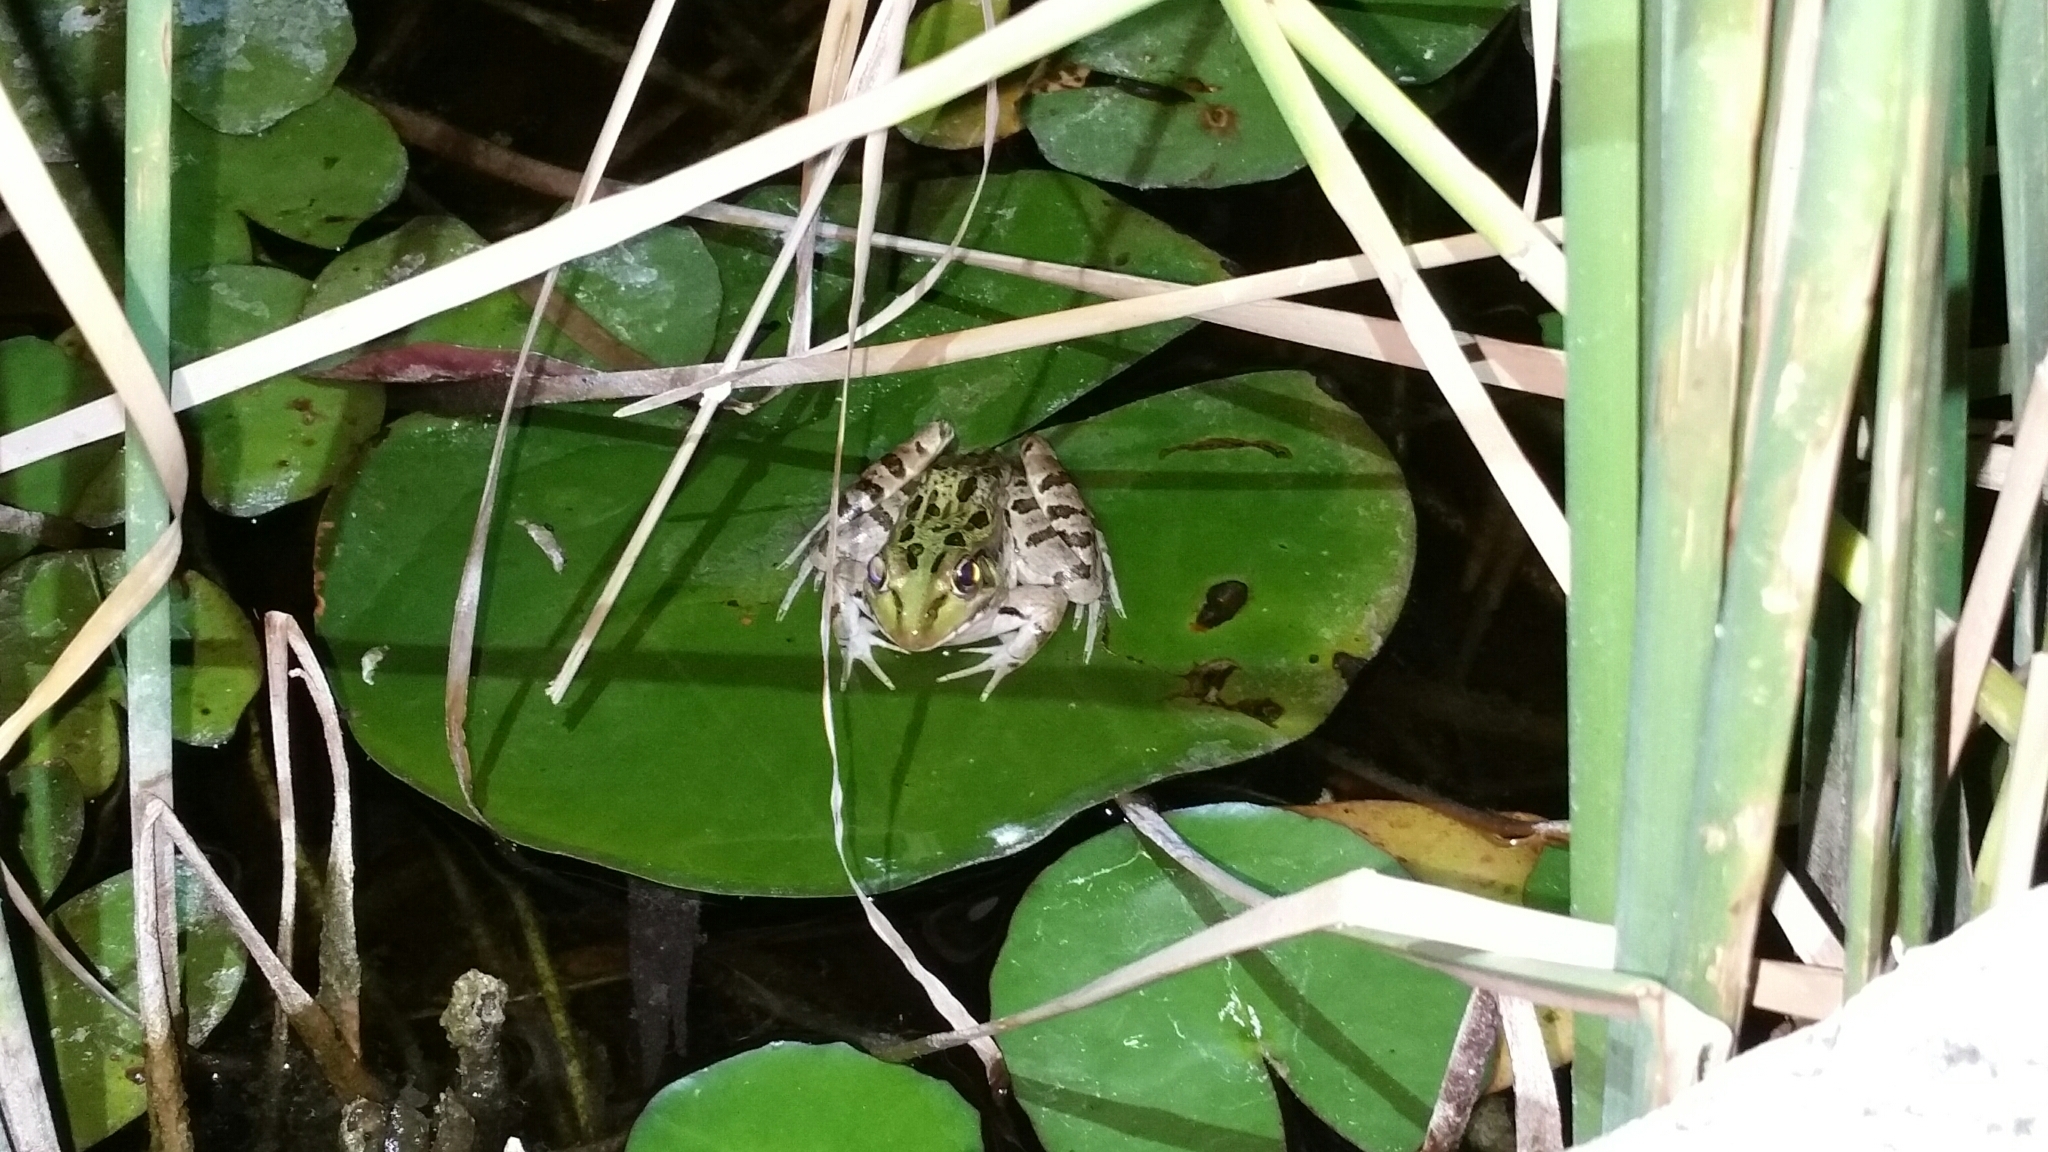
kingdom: Animalia
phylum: Chordata
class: Amphibia
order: Anura
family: Ranidae
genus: Lithobates
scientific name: Lithobates berlandieri
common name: Rio grande leopard frog
